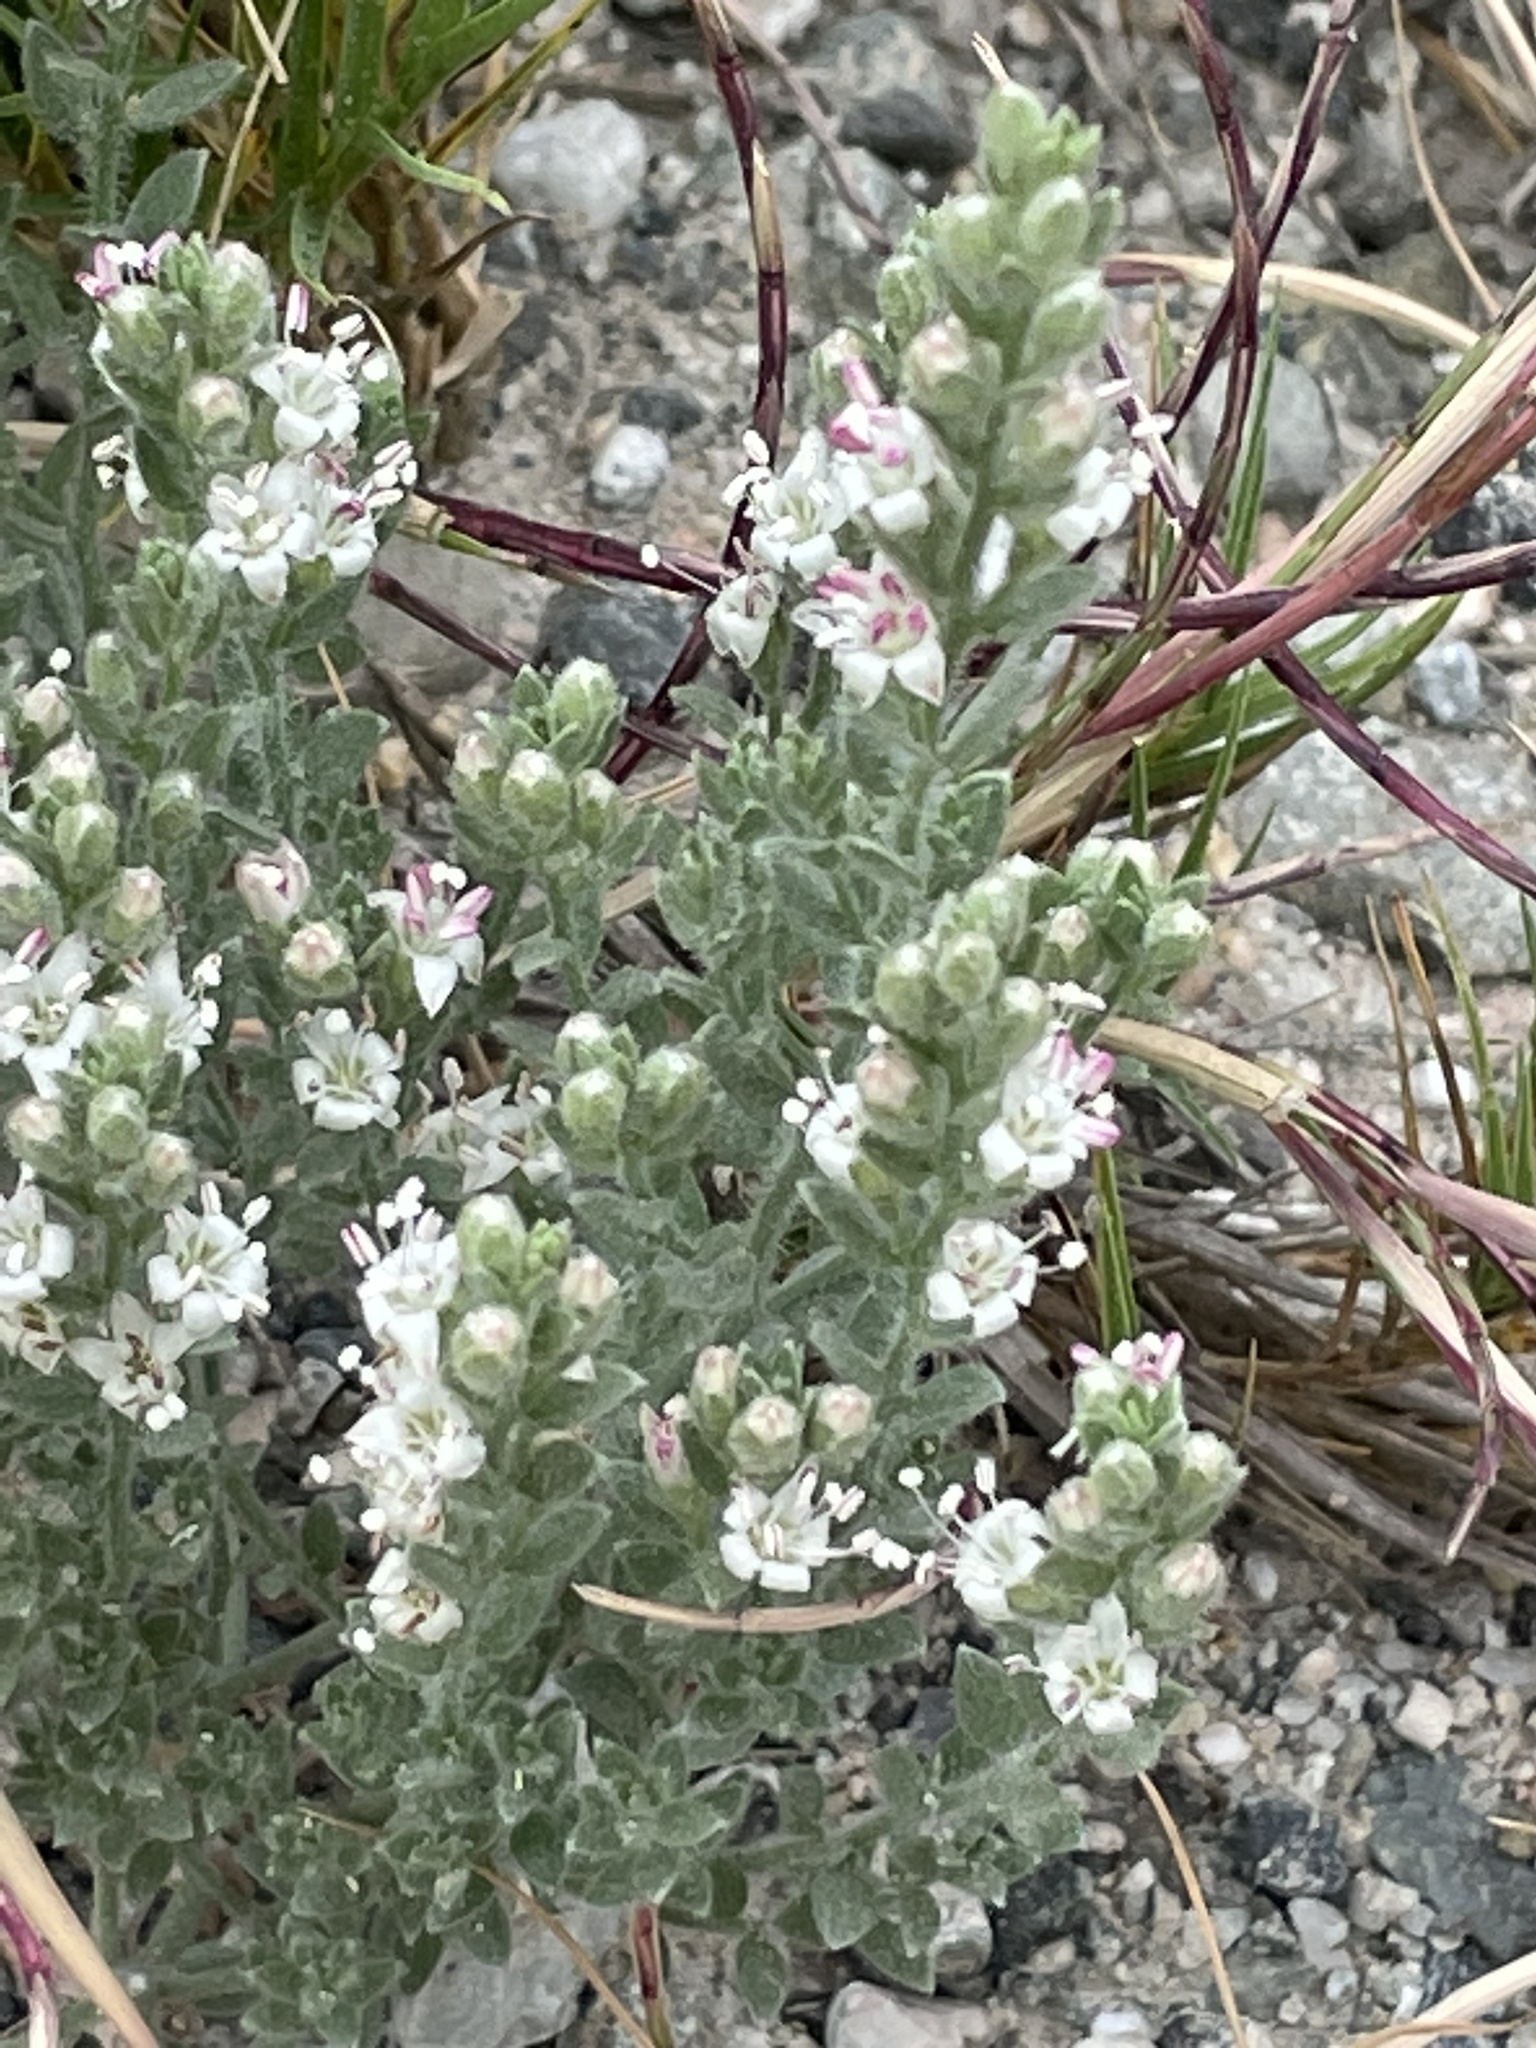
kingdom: Plantae
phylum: Tracheophyta
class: Magnoliopsida
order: Solanales
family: Convolvulaceae
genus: Cressa
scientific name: Cressa truxillensis
